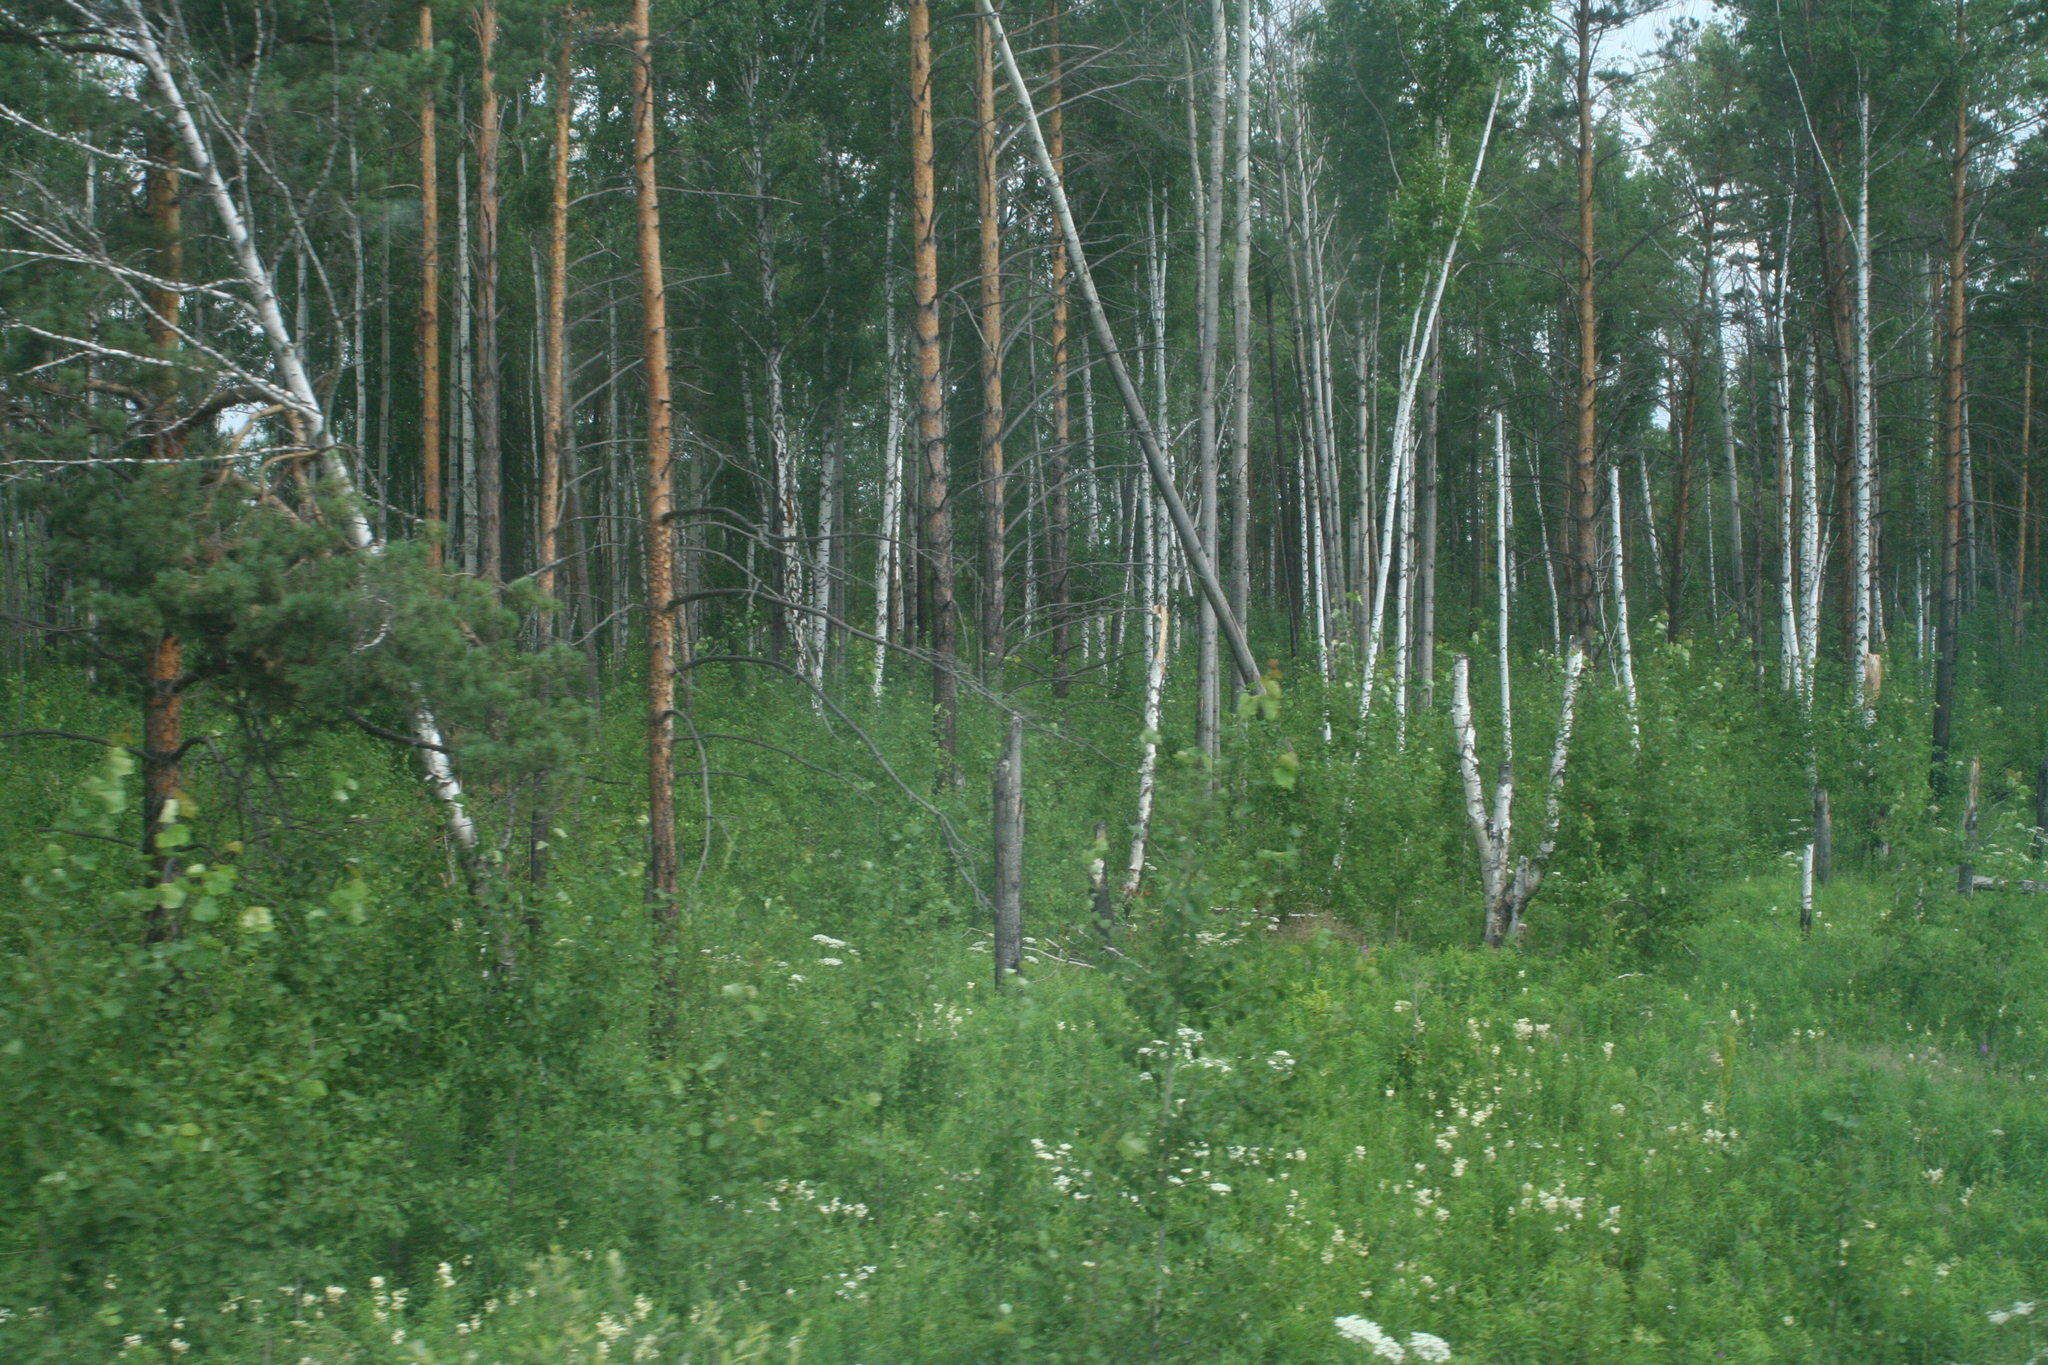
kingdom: Plantae
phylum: Tracheophyta
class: Pinopsida
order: Pinales
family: Pinaceae
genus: Pinus
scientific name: Pinus sylvestris
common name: Scots pine
